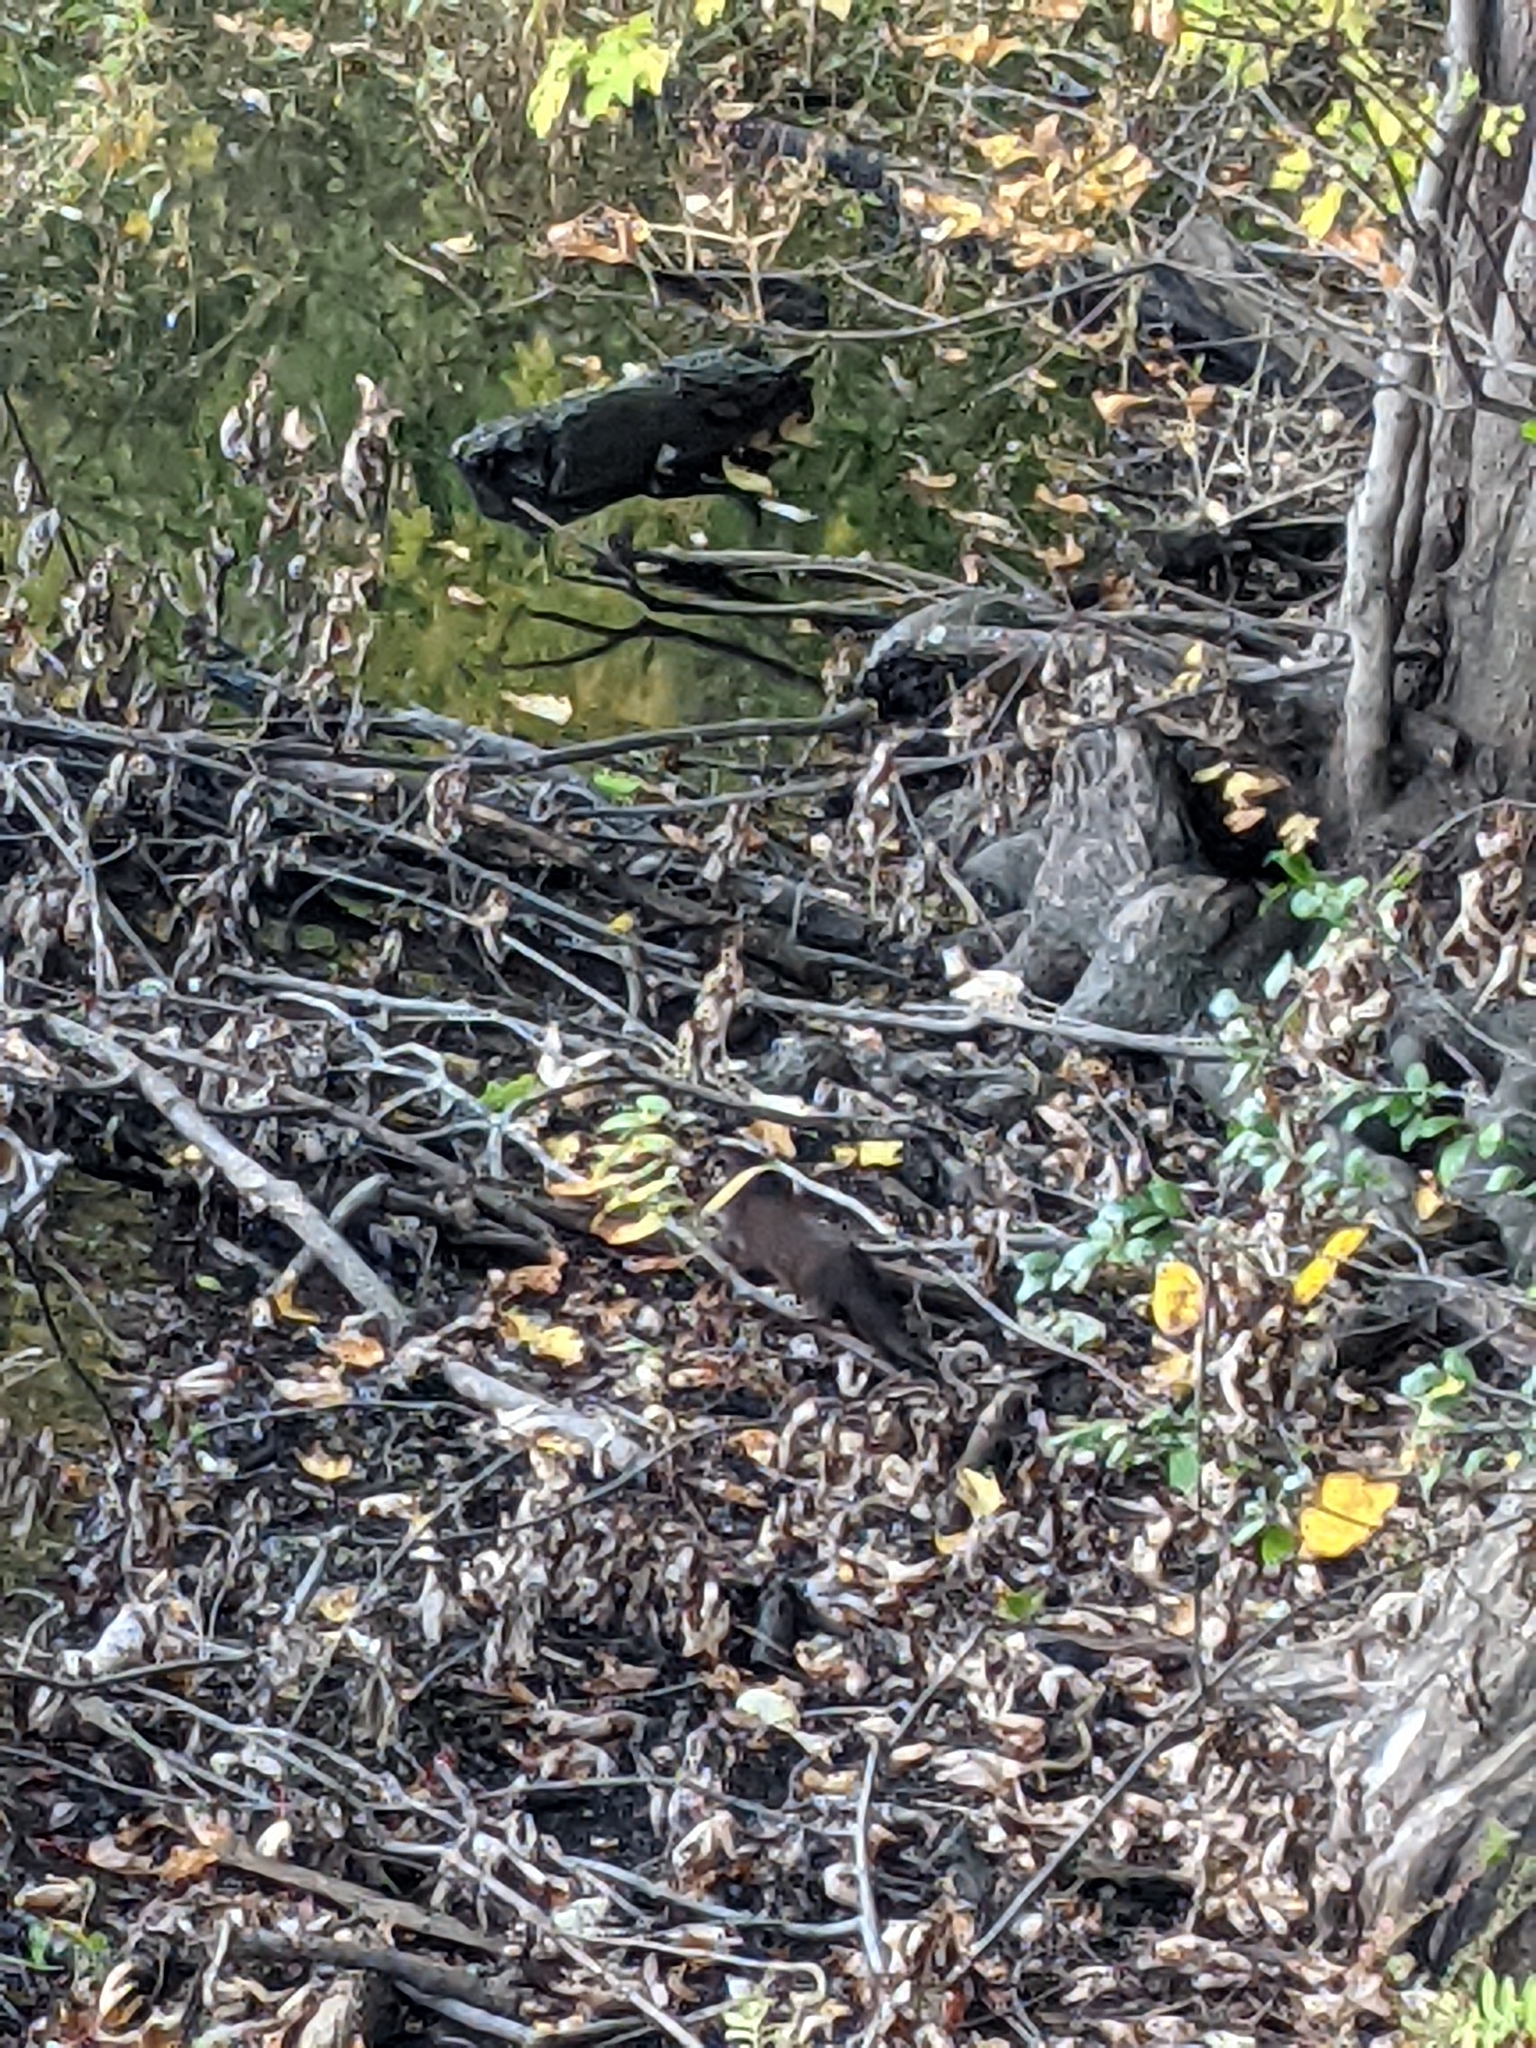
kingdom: Animalia
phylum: Chordata
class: Mammalia
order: Carnivora
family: Mustelidae
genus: Mustela
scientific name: Mustela
